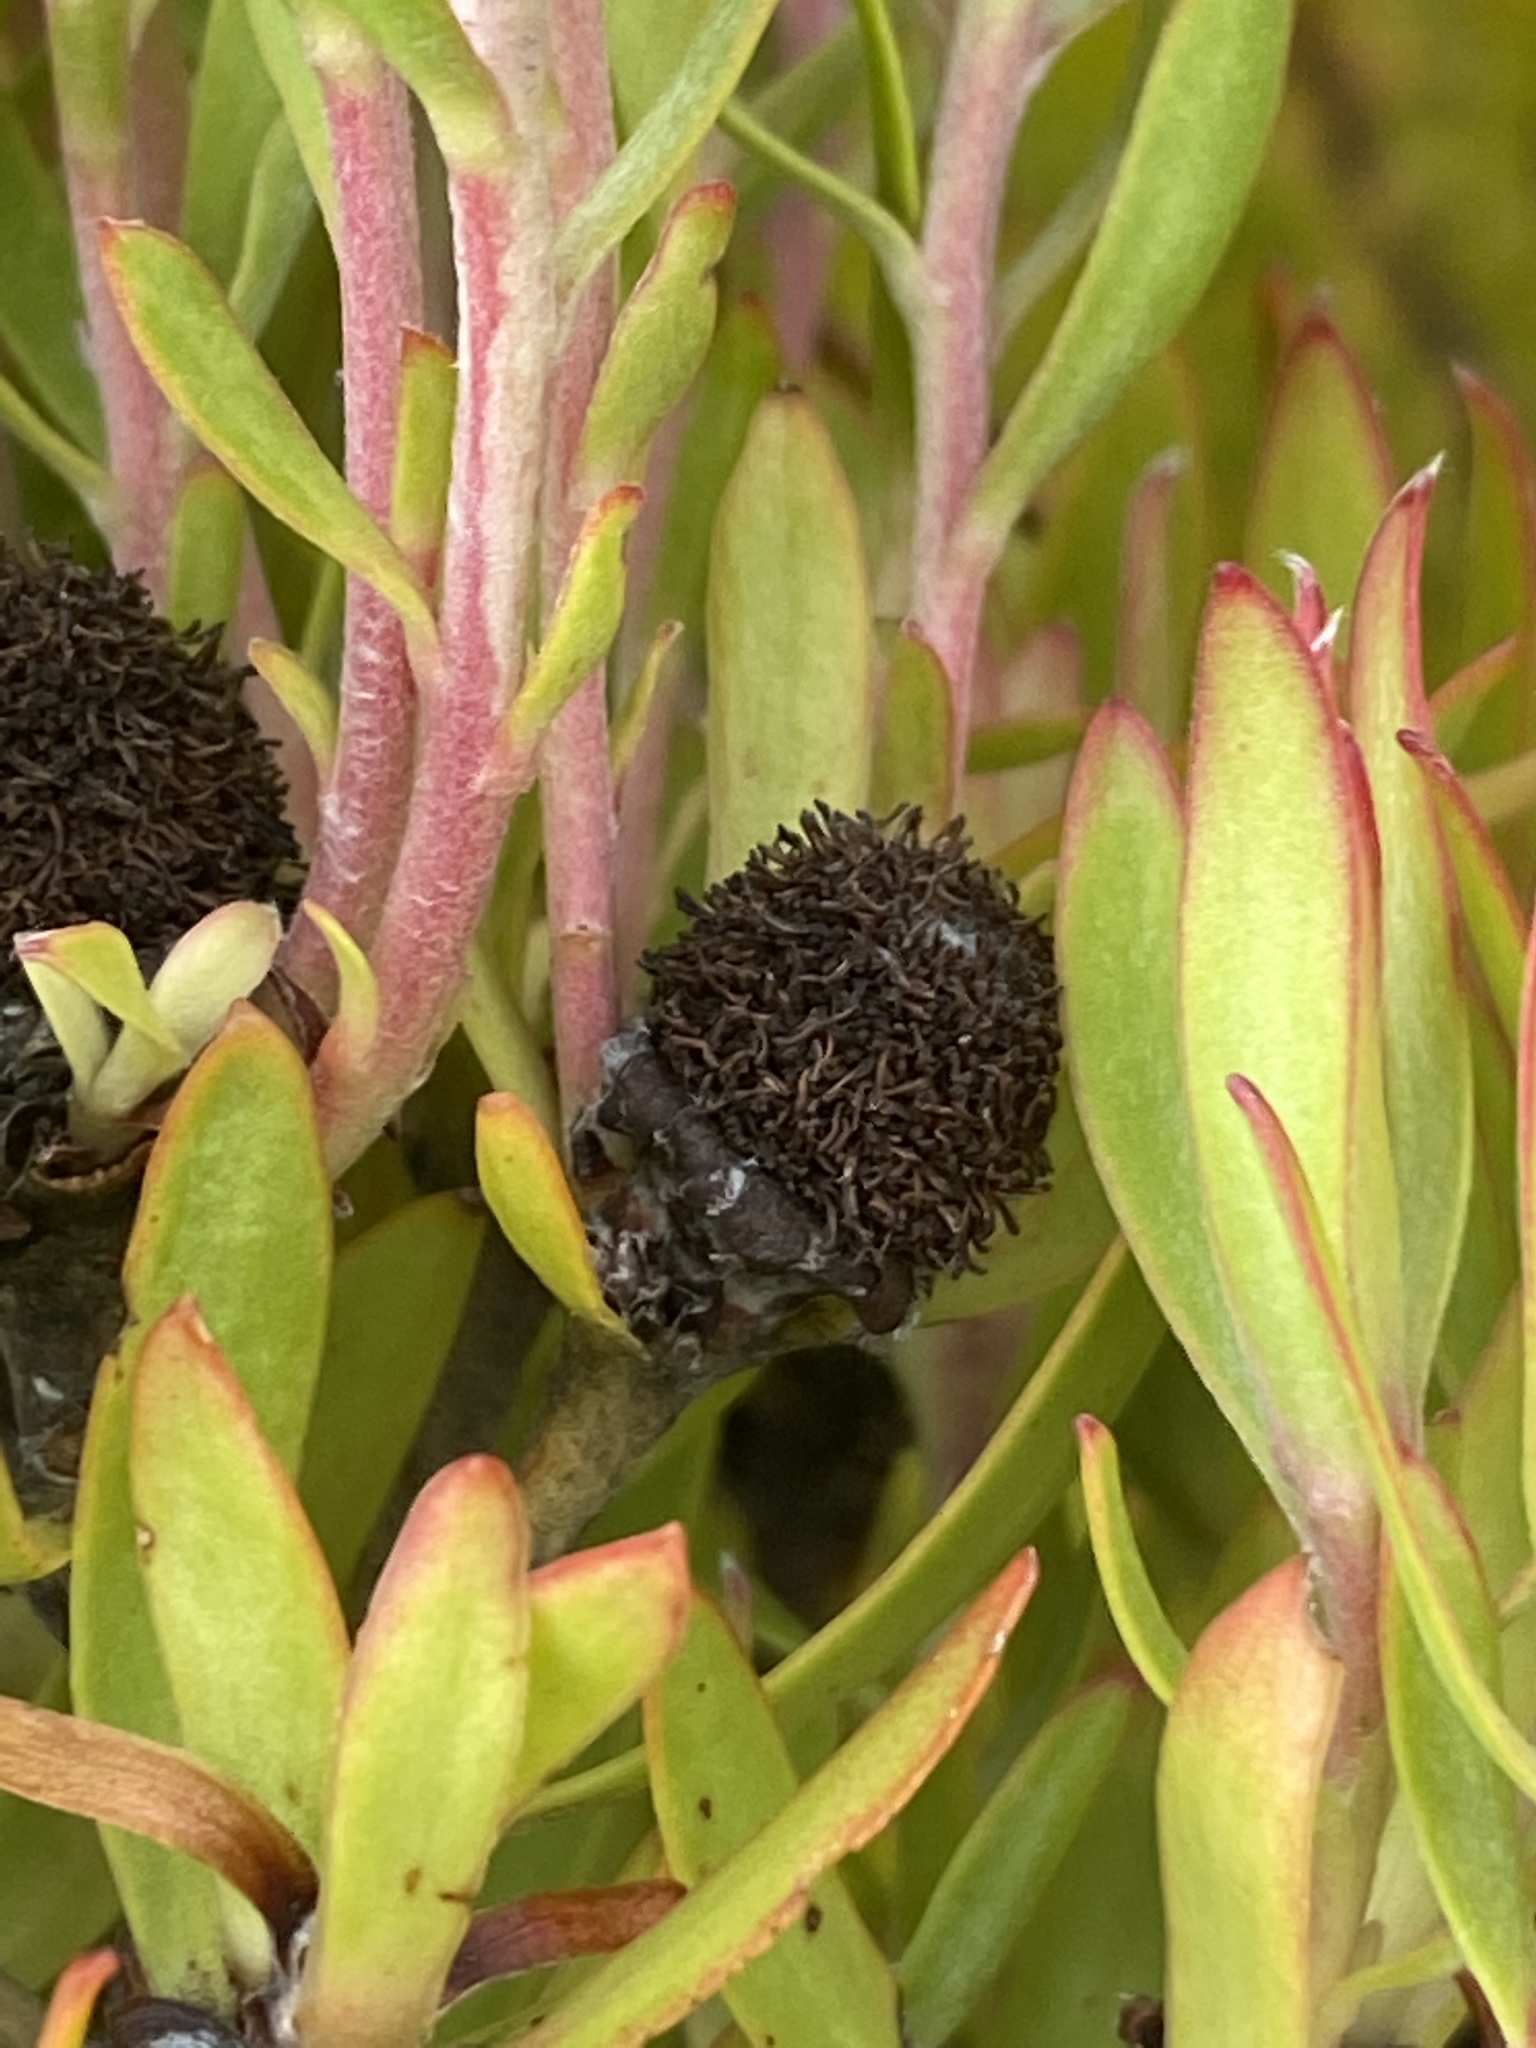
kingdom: Plantae
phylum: Tracheophyta
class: Magnoliopsida
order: Proteales
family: Proteaceae
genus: Leucadendron
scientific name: Leucadendron salignum
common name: Common sunshine conebush
